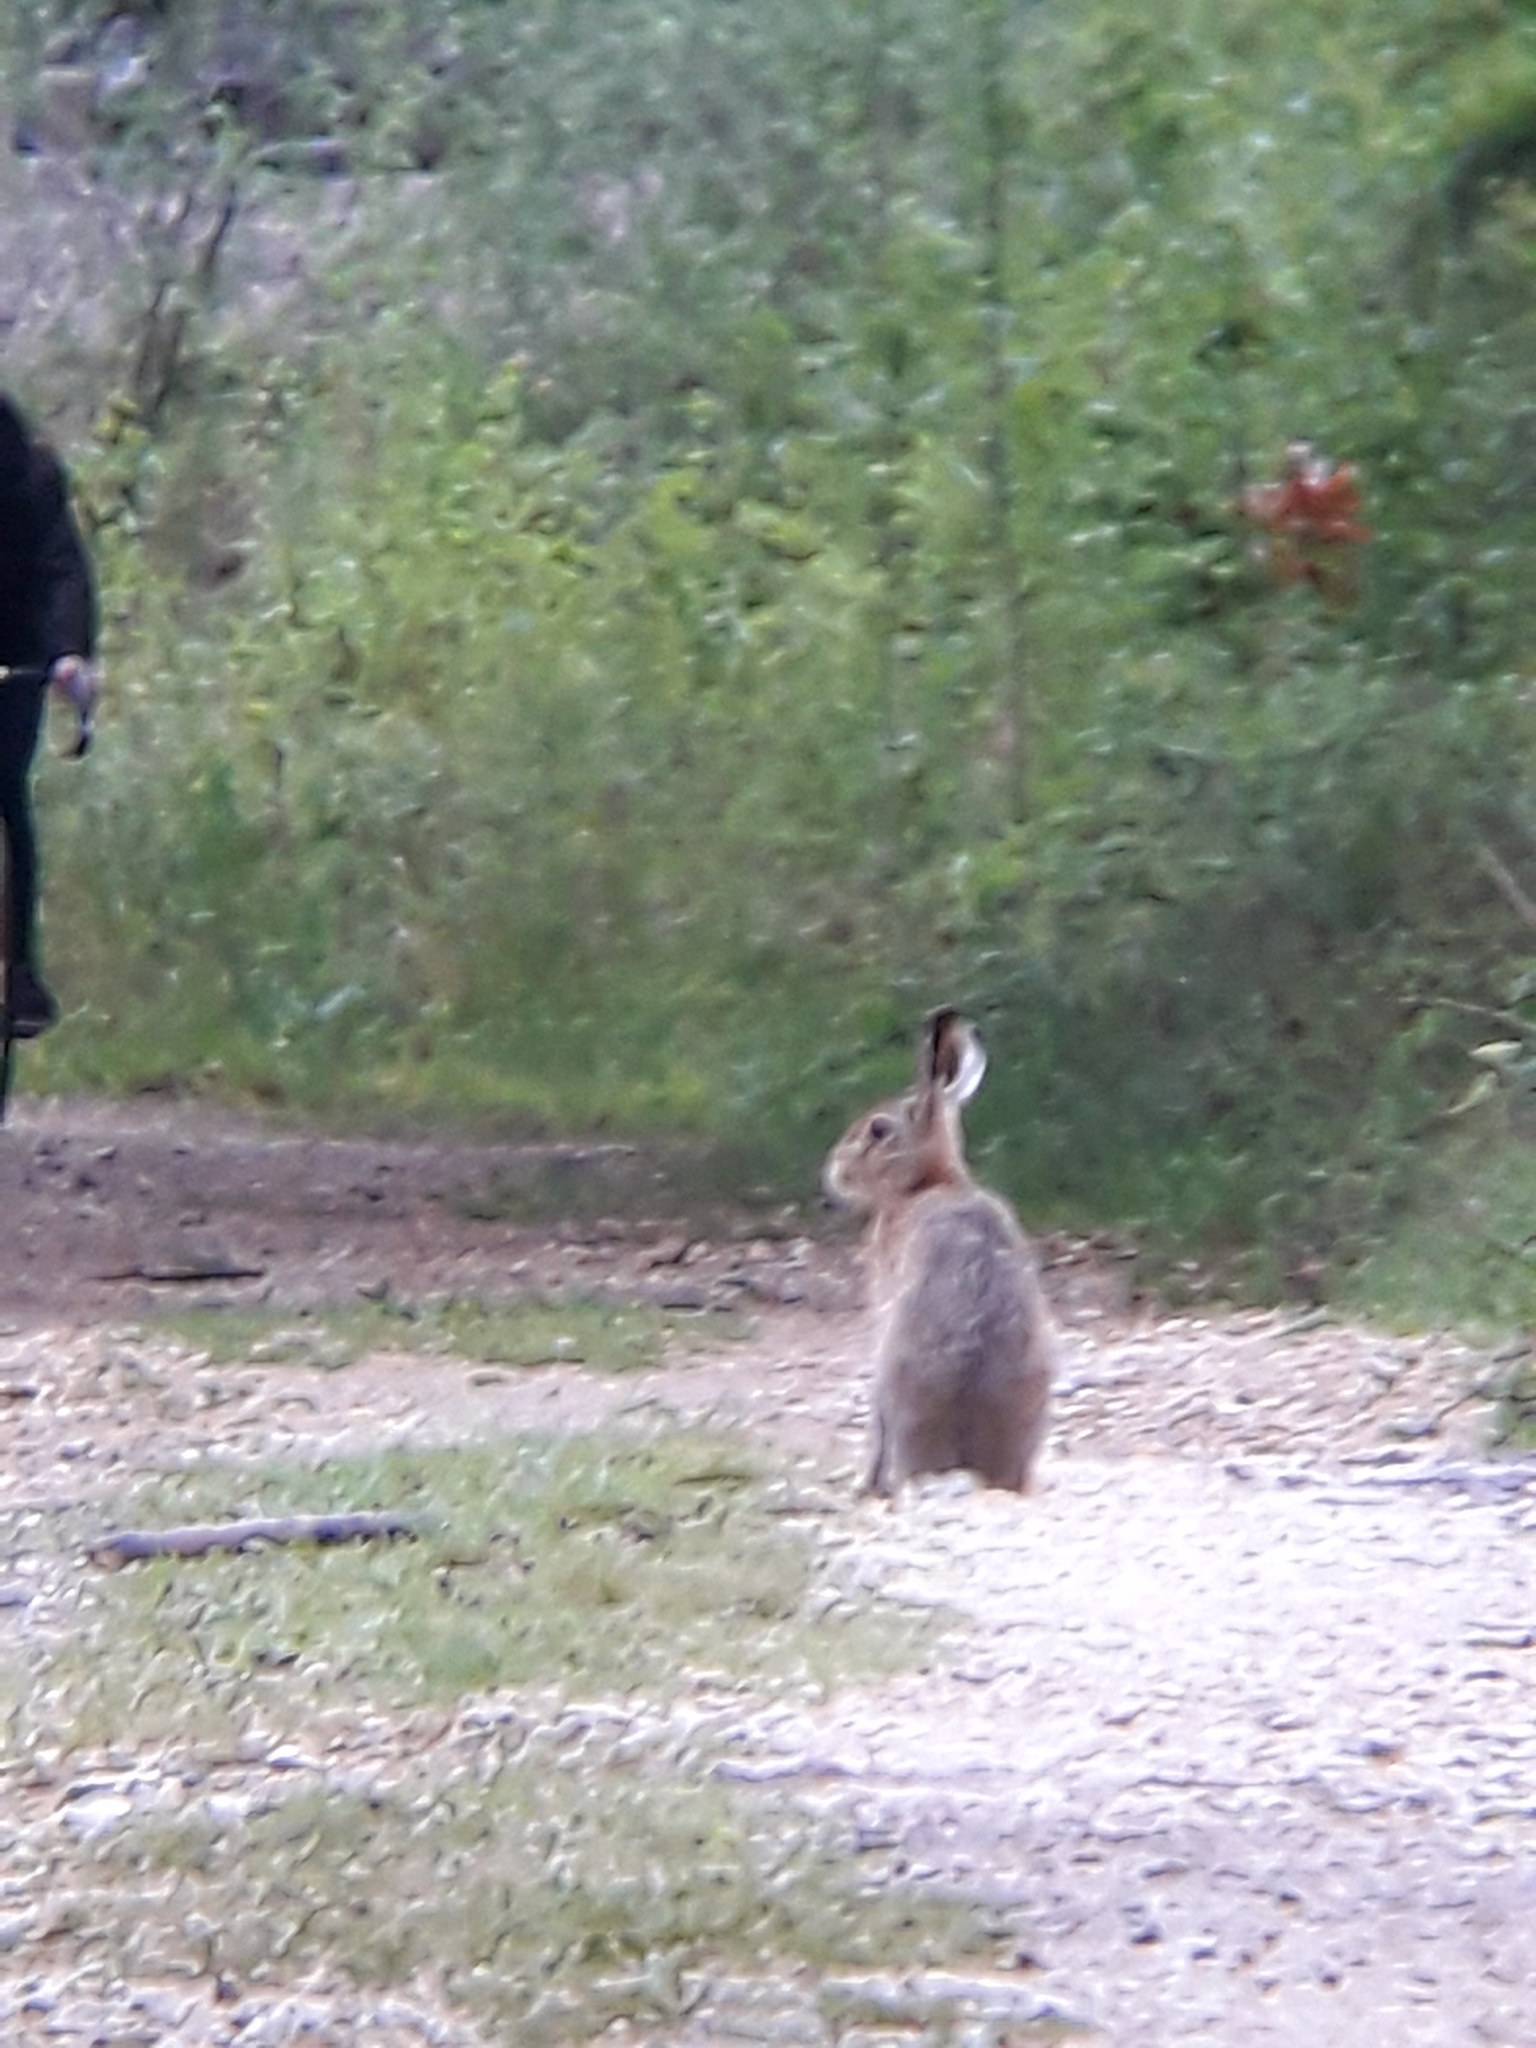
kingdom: Animalia
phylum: Chordata
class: Mammalia
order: Lagomorpha
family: Leporidae
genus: Lepus
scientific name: Lepus europaeus
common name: European hare
